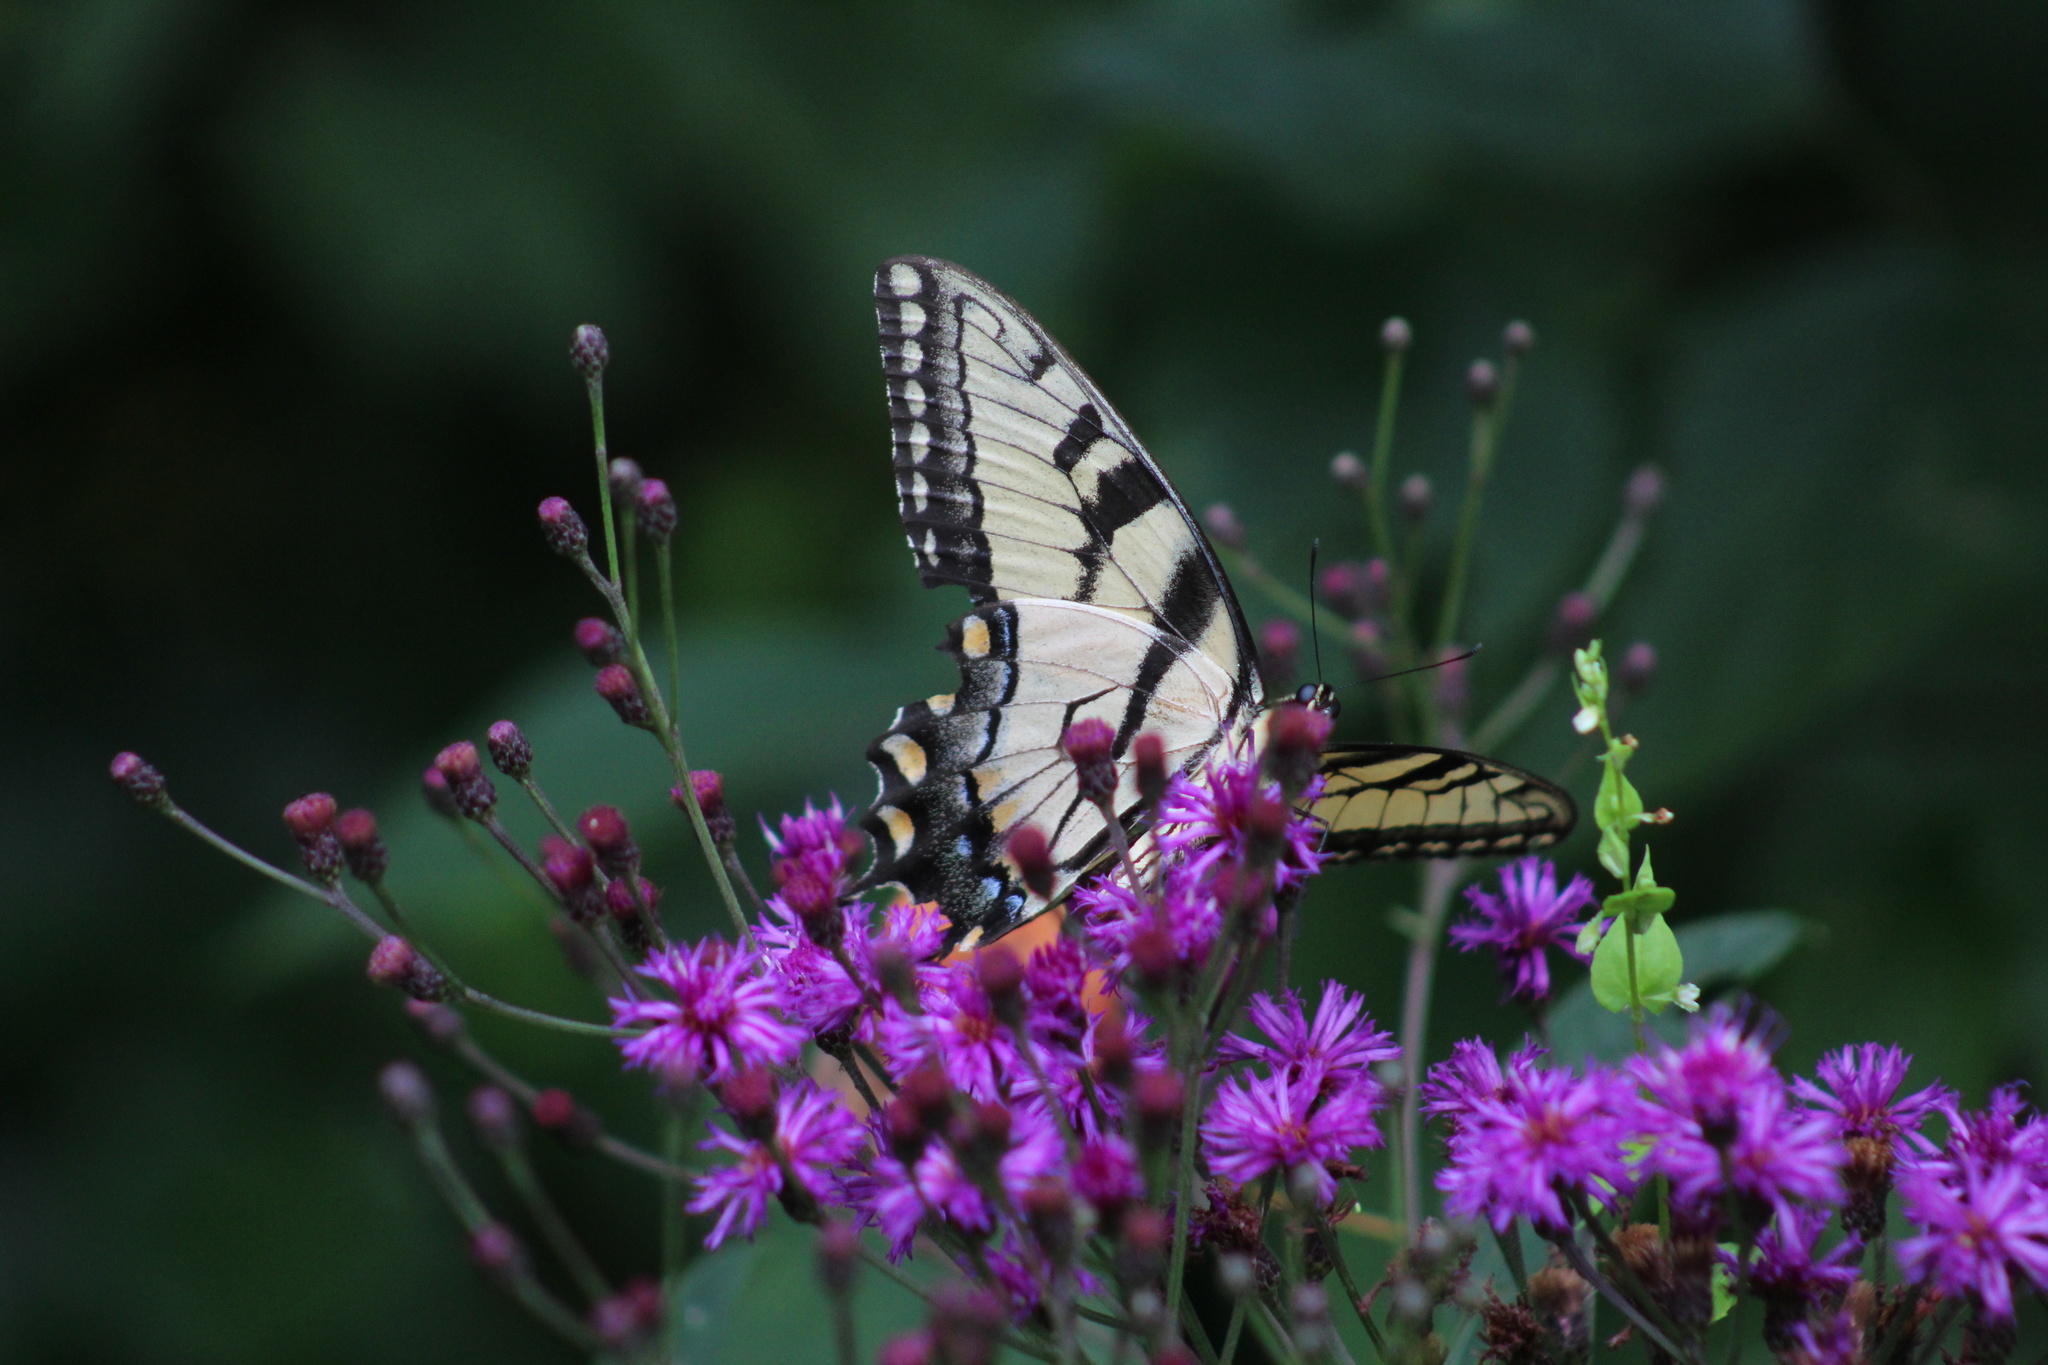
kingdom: Animalia
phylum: Arthropoda
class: Insecta
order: Lepidoptera
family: Papilionidae
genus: Papilio
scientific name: Papilio glaucus
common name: Tiger swallowtail
